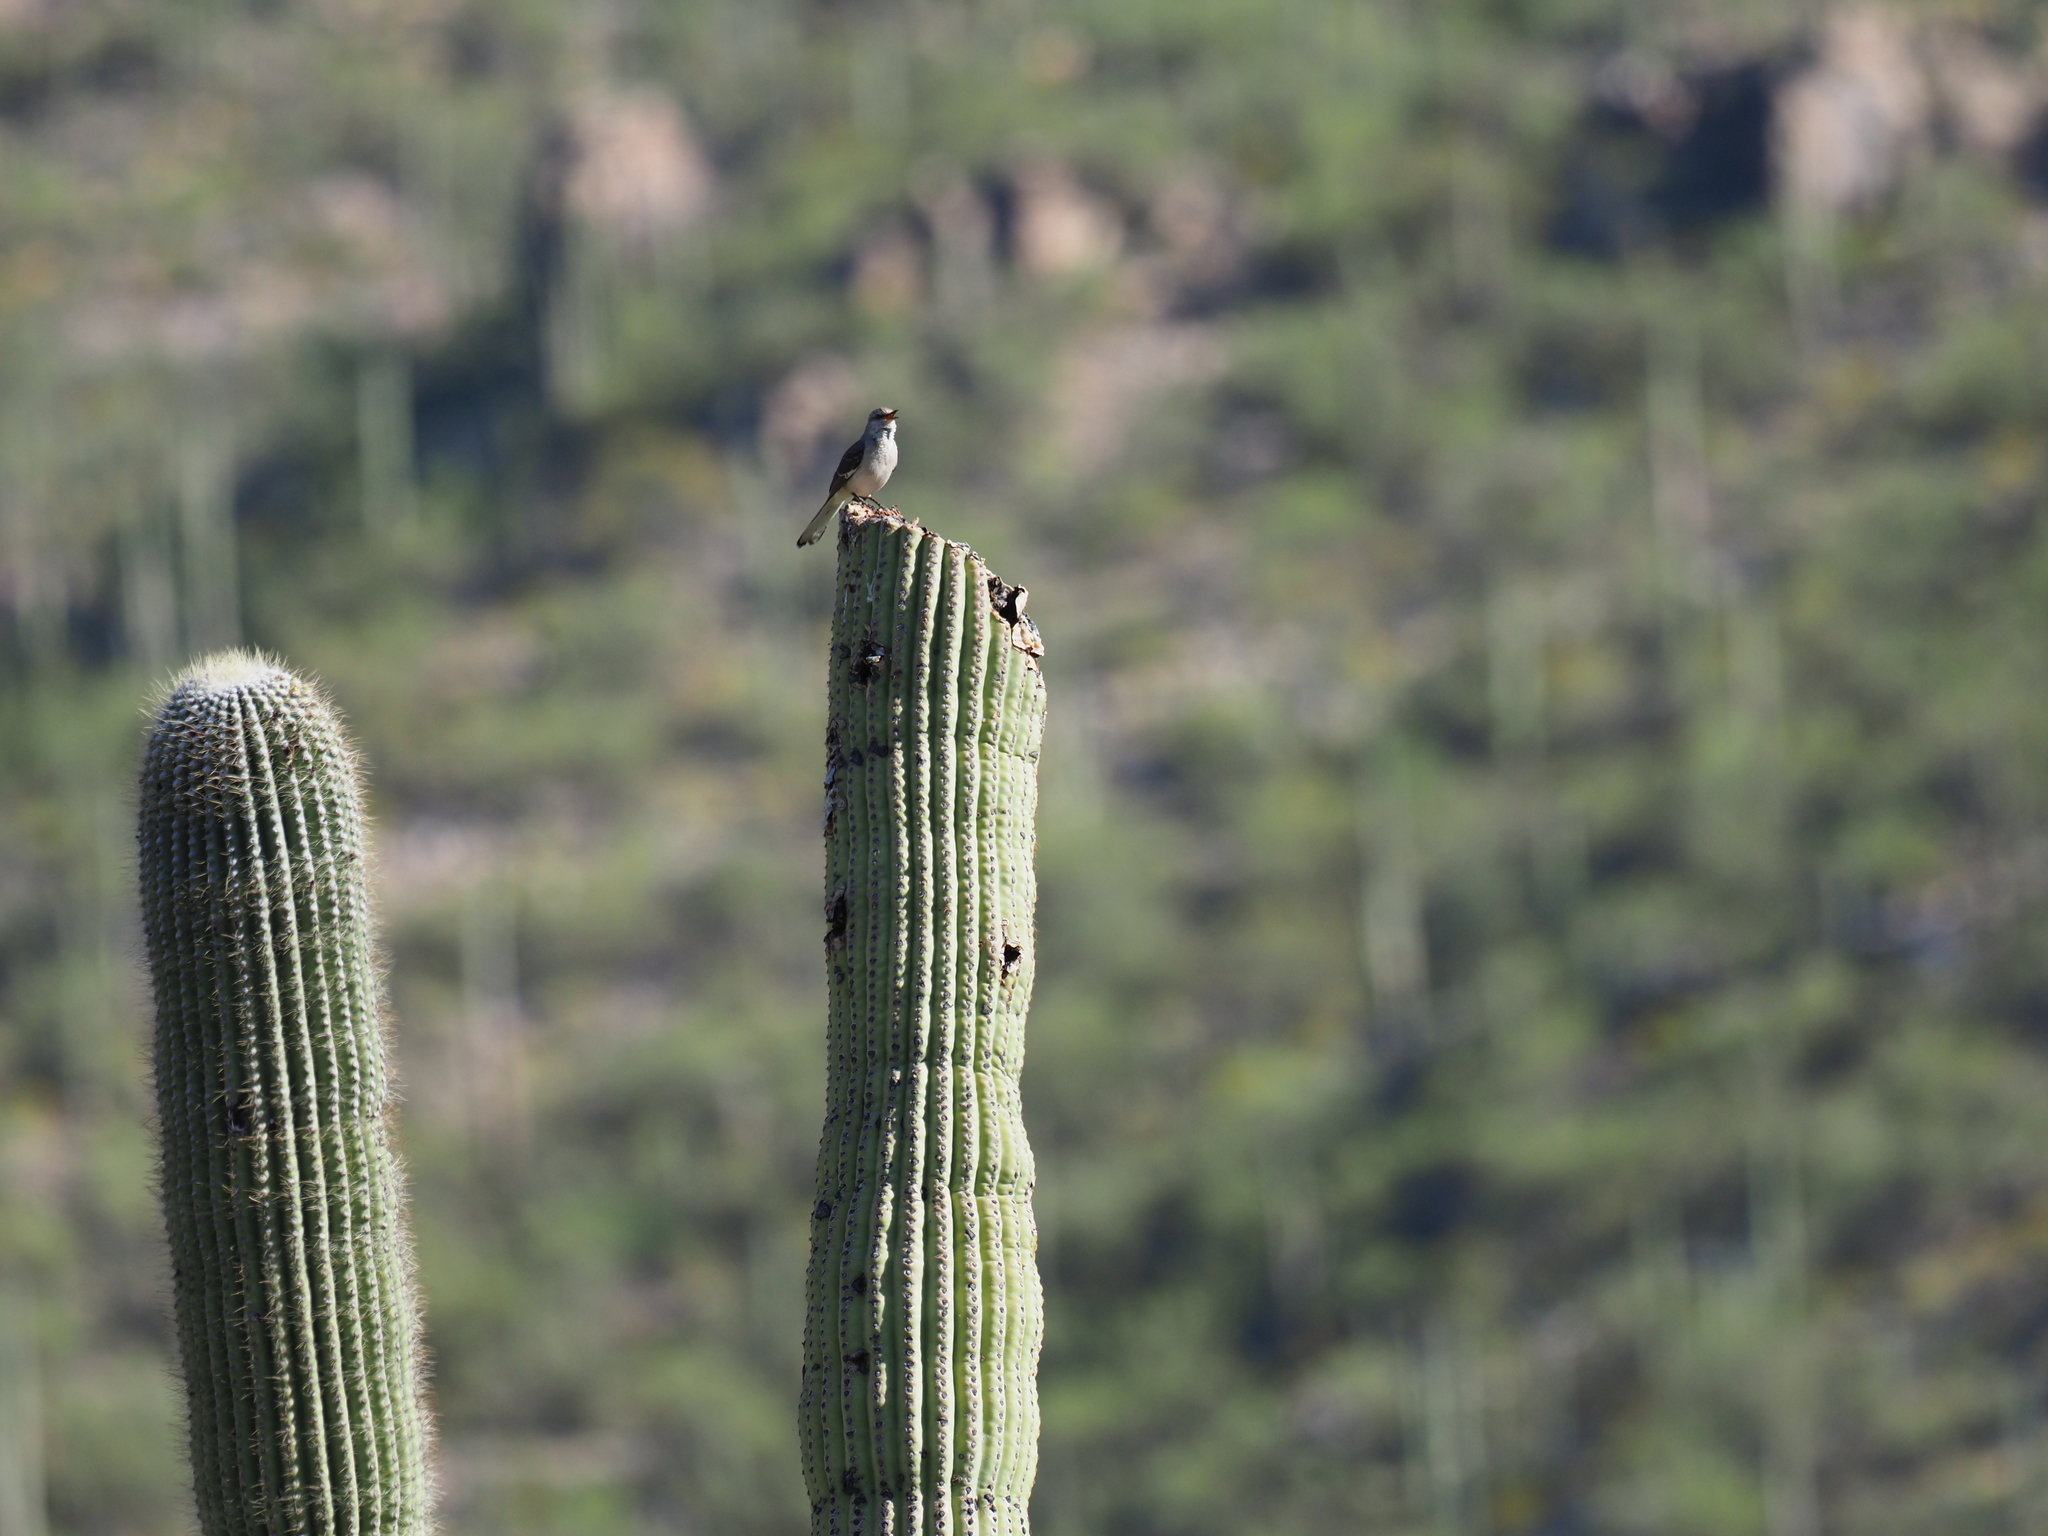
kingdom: Animalia
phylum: Chordata
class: Aves
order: Passeriformes
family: Mimidae
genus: Mimus
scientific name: Mimus polyglottos
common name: Northern mockingbird
